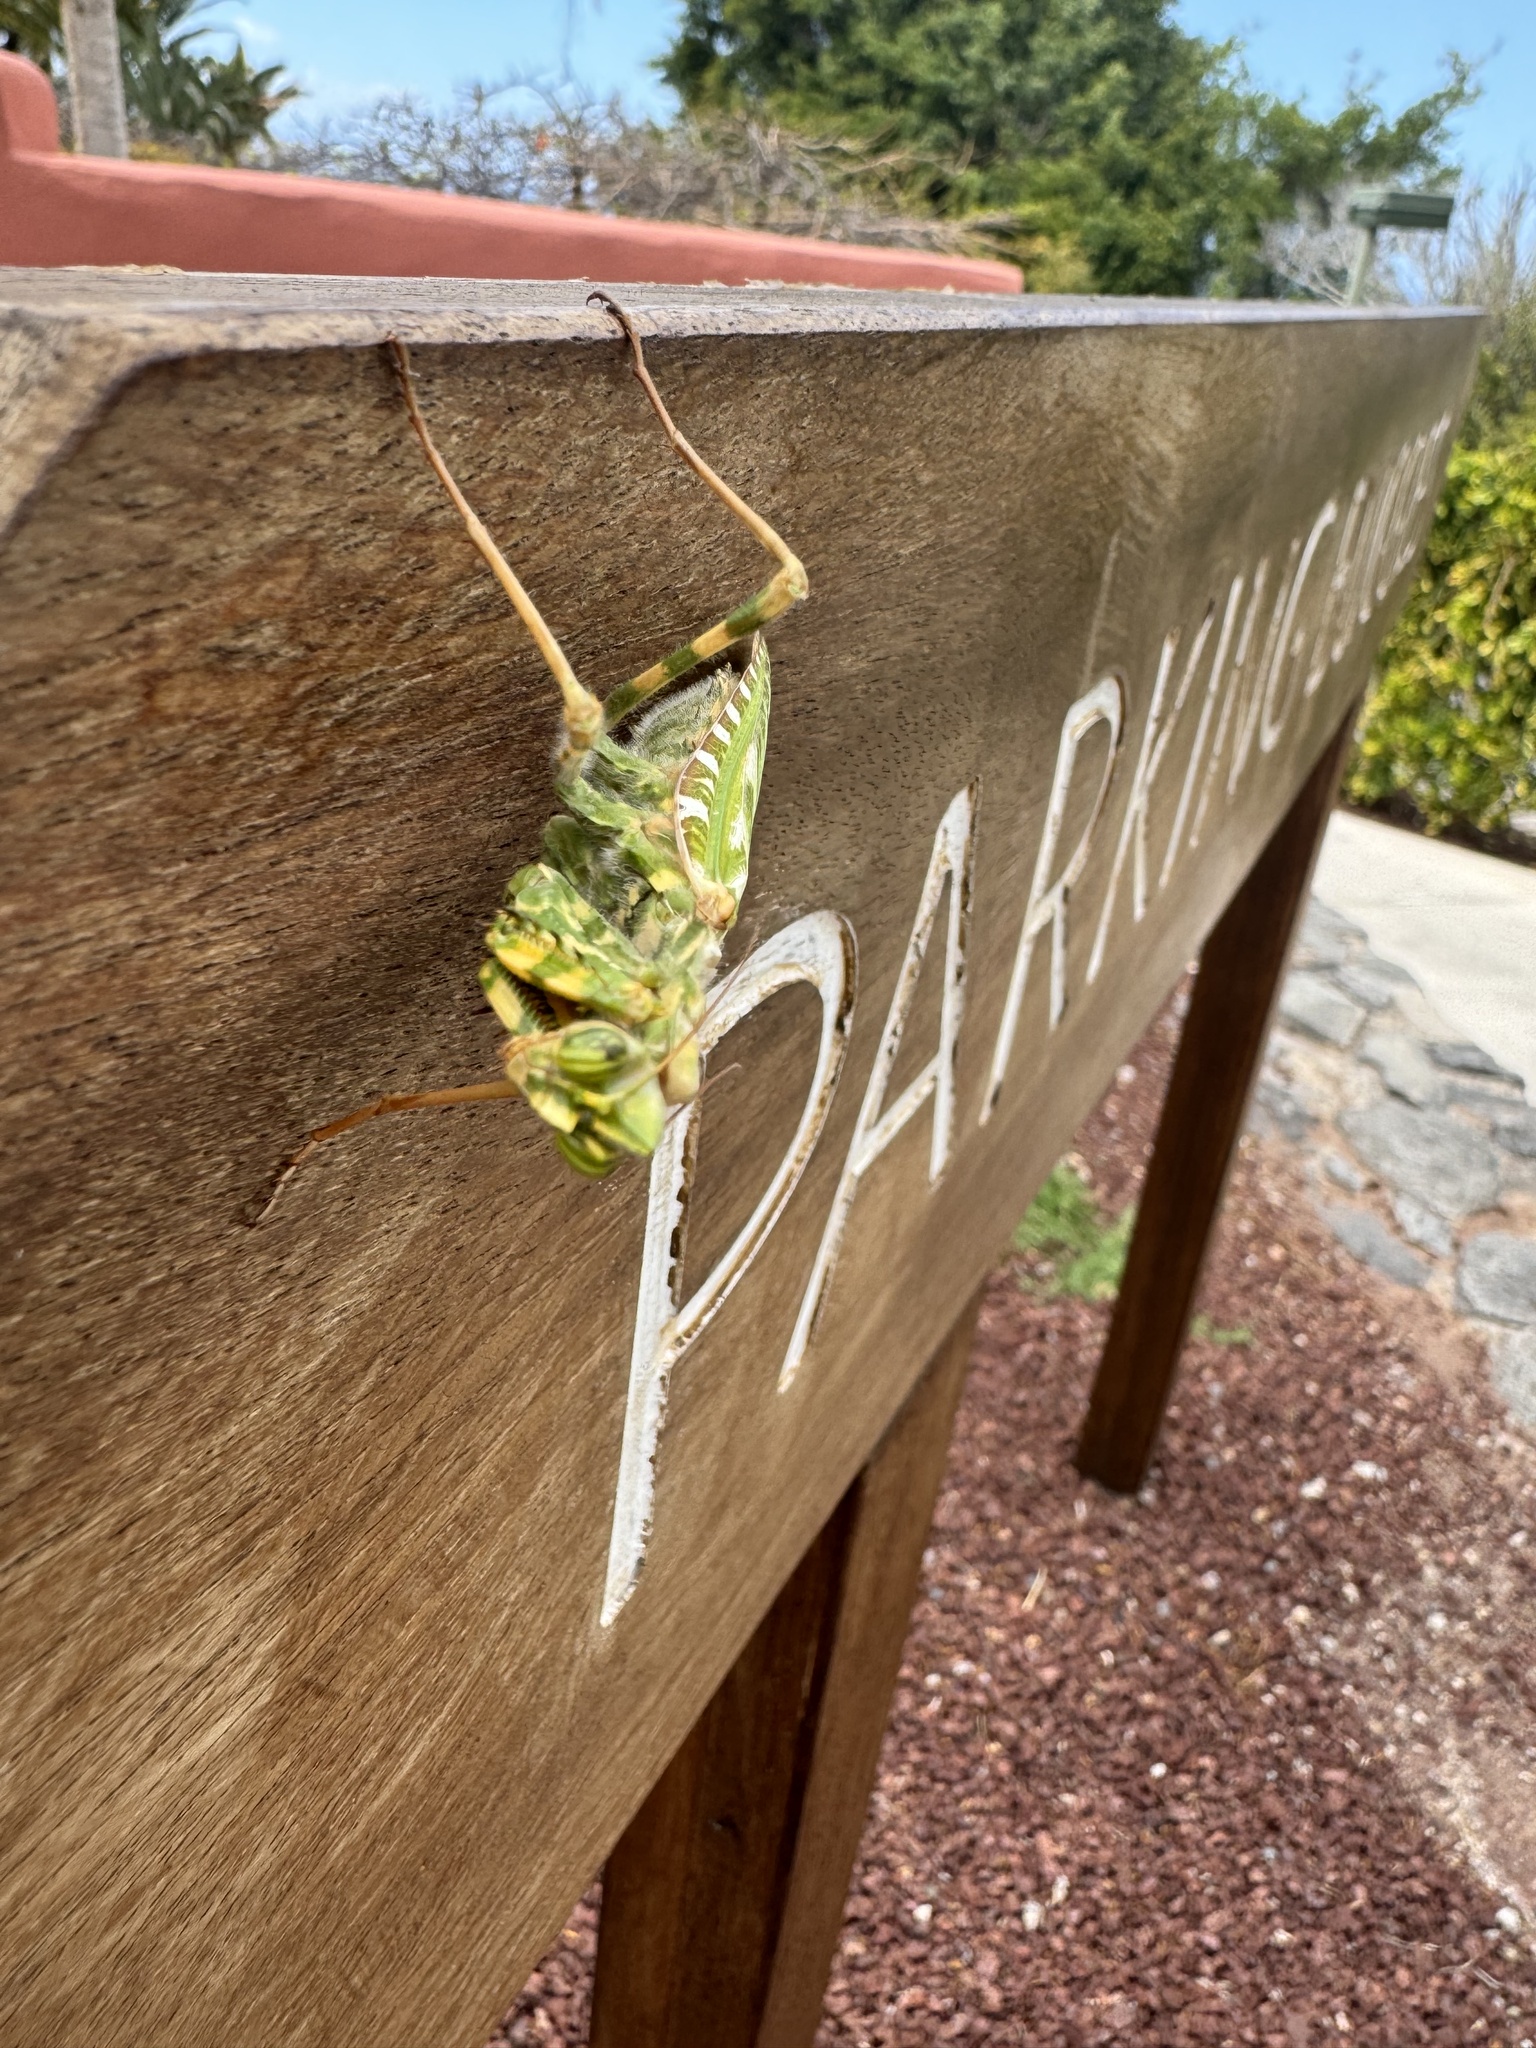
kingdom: Animalia
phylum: Arthropoda
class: Insecta
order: Mantodea
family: Empusidae
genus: Blepharopsis
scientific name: Blepharopsis mendica
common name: Devil's flower mantis
